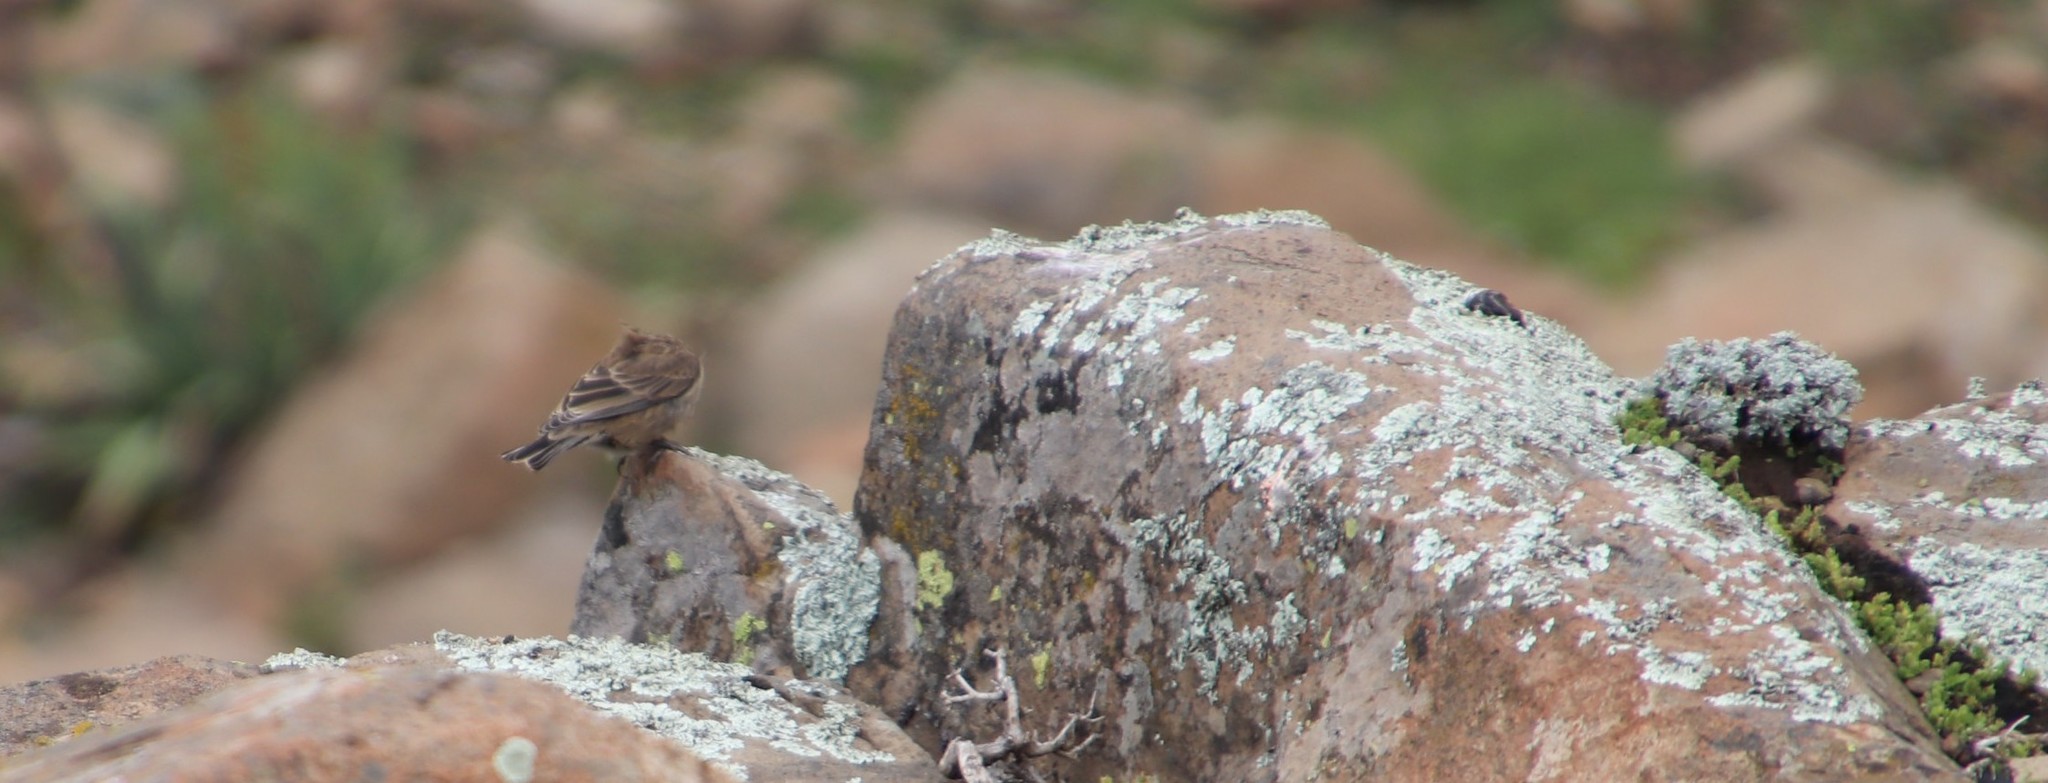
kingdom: Animalia
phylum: Chordata
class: Aves
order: Passeriformes
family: Fringillidae
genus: Crithagra
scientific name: Crithagra symonsi
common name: Drakensberg siskin
